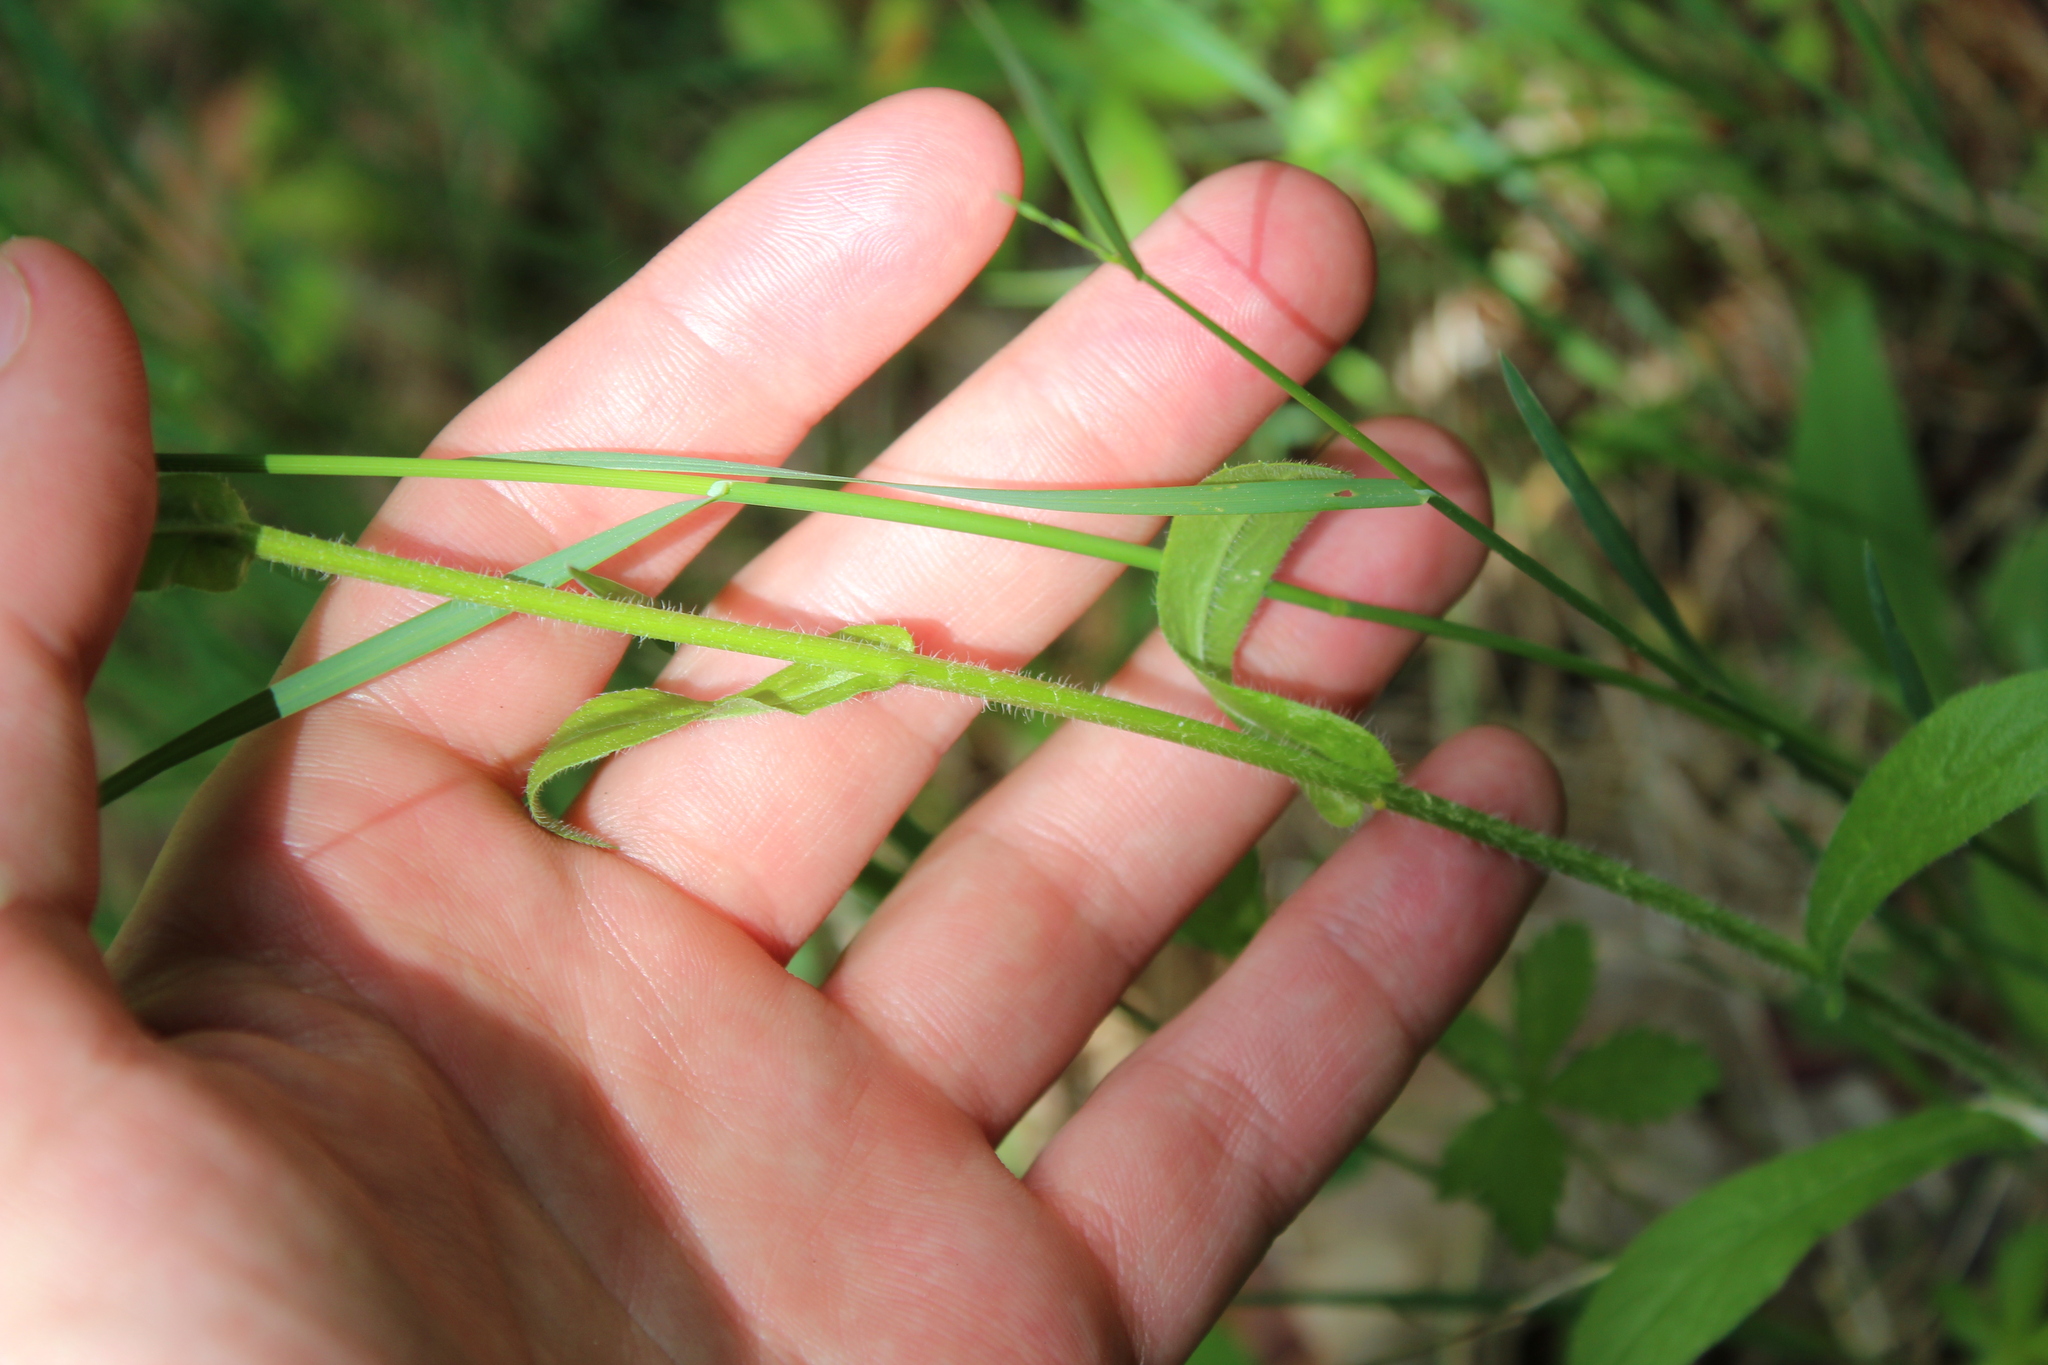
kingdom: Plantae
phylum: Tracheophyta
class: Magnoliopsida
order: Asterales
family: Asteraceae
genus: Erigeron
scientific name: Erigeron philadelphicus
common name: Robin's-plantain
